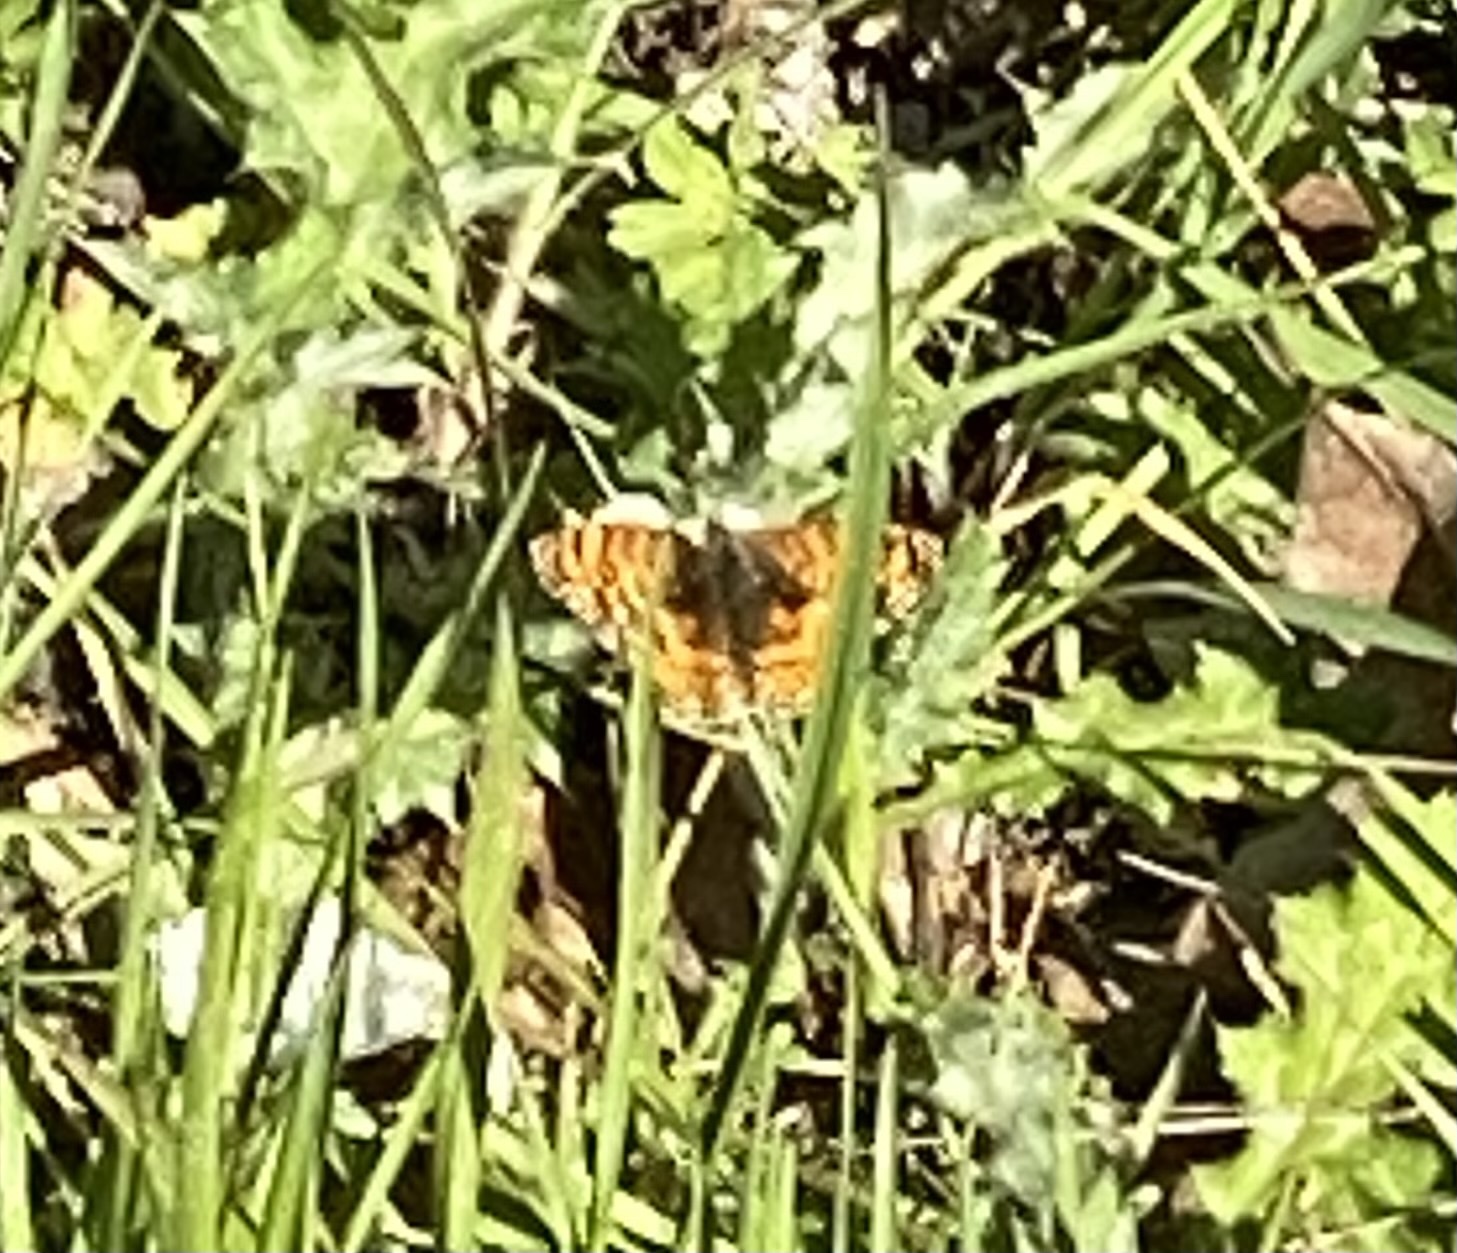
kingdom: Animalia
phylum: Arthropoda
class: Insecta
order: Lepidoptera
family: Nymphalidae
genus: Eresia
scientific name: Eresia aveyrona
